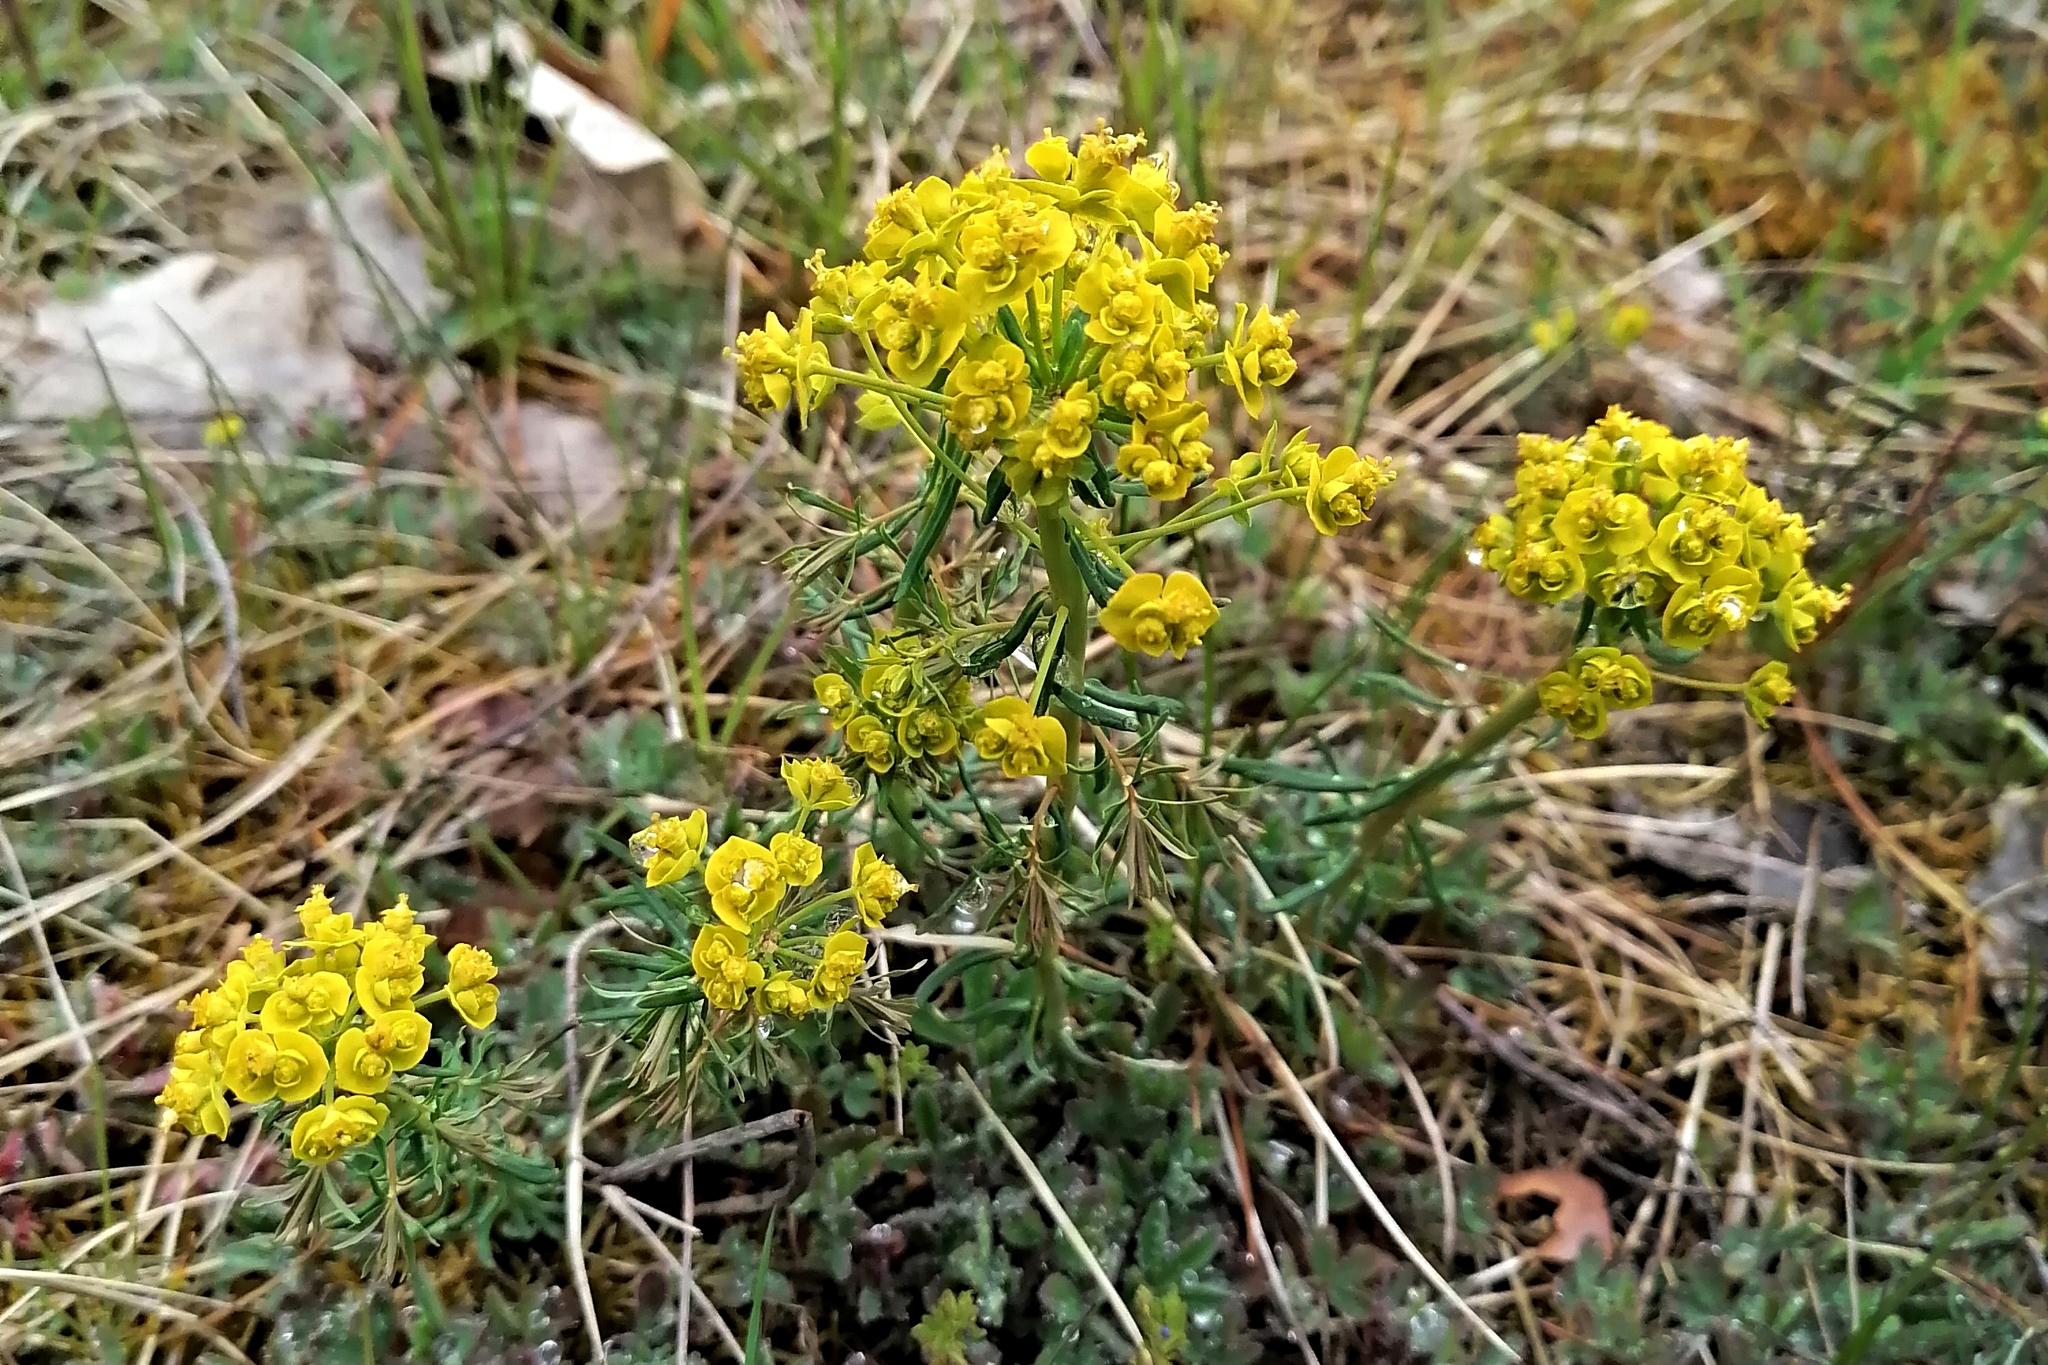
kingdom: Plantae
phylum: Tracheophyta
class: Magnoliopsida
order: Malpighiales
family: Euphorbiaceae
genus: Euphorbia
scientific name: Euphorbia cyparissias
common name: Cypress spurge
